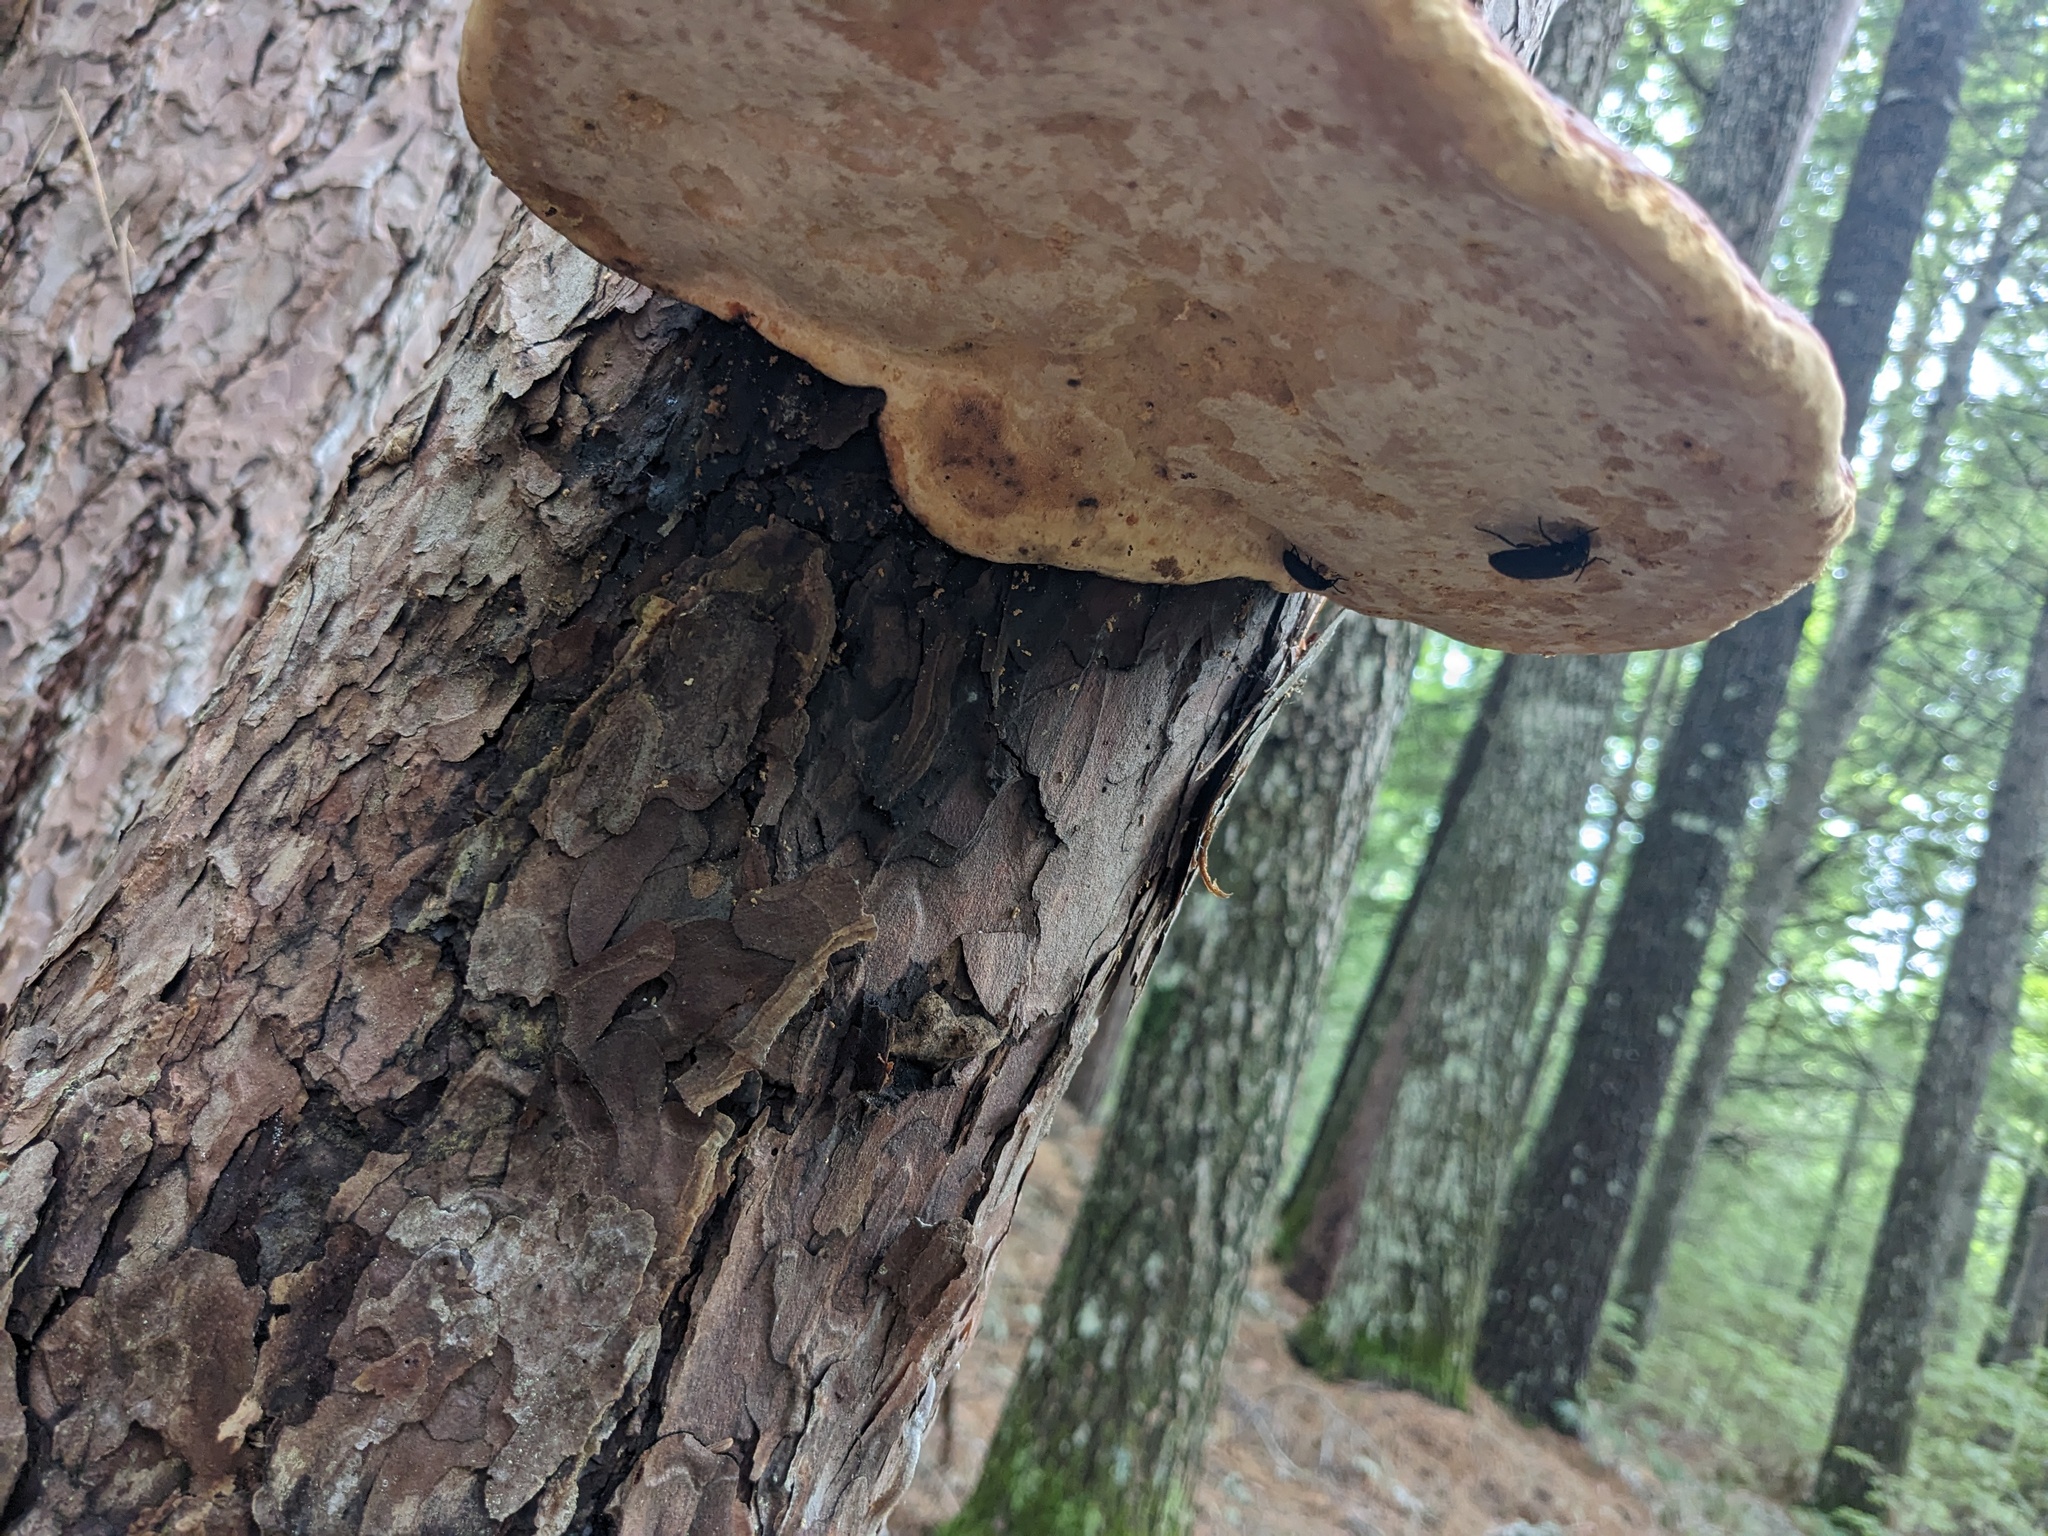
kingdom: Fungi
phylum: Basidiomycota
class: Agaricomycetes
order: Polyporales
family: Fomitopsidaceae
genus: Fomitopsis
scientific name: Fomitopsis mounceae
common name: Northern red belt
